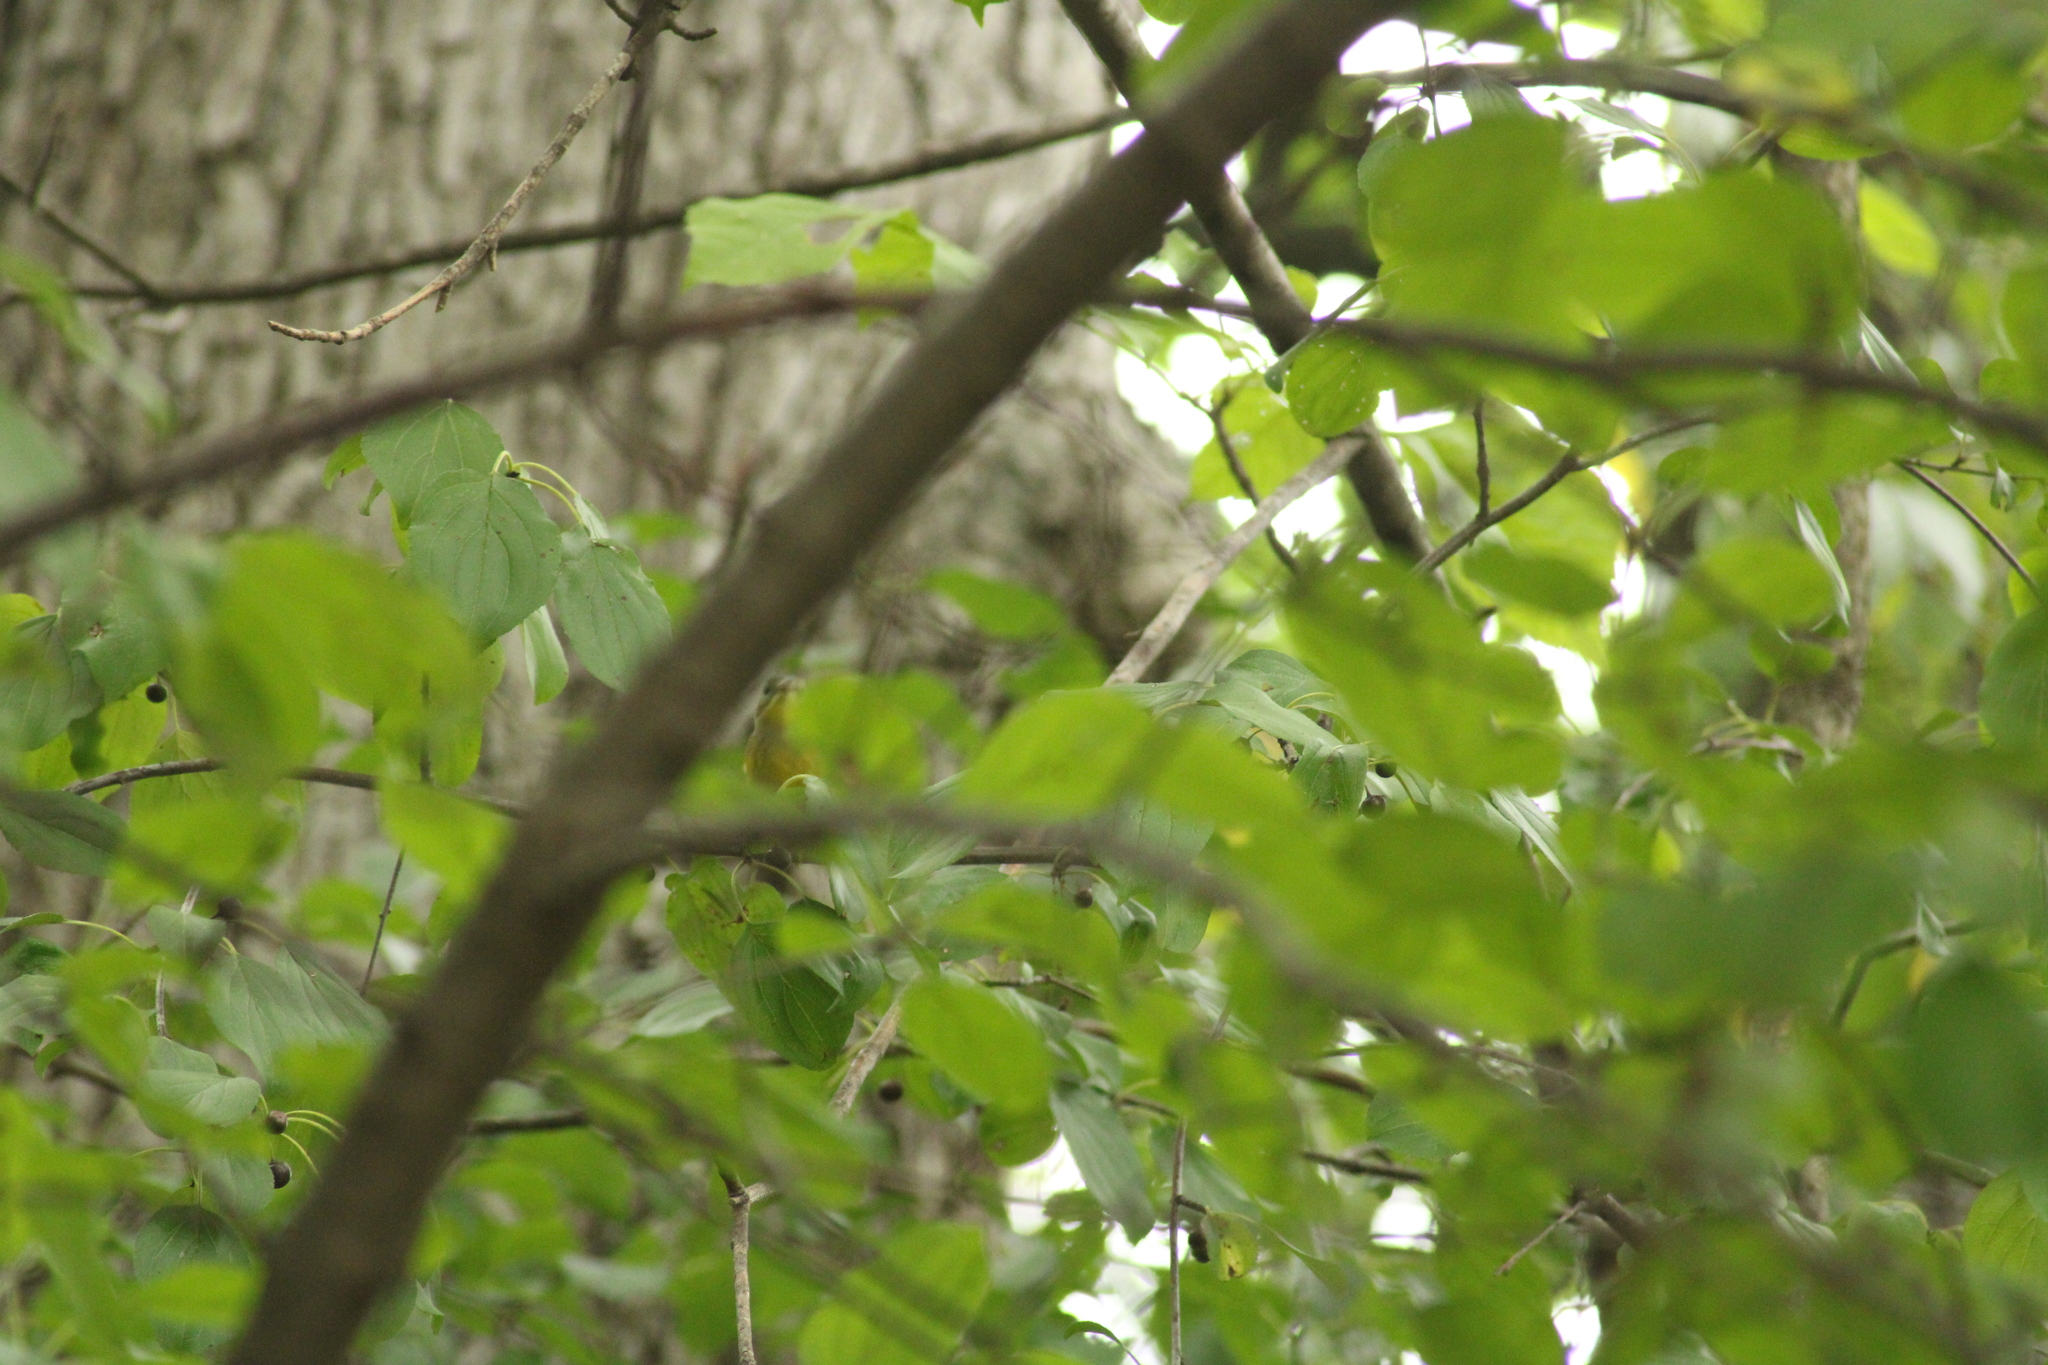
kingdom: Animalia
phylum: Chordata
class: Aves
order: Passeriformes
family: Parulidae
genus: Setophaga
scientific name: Setophaga magnolia
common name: Magnolia warbler
